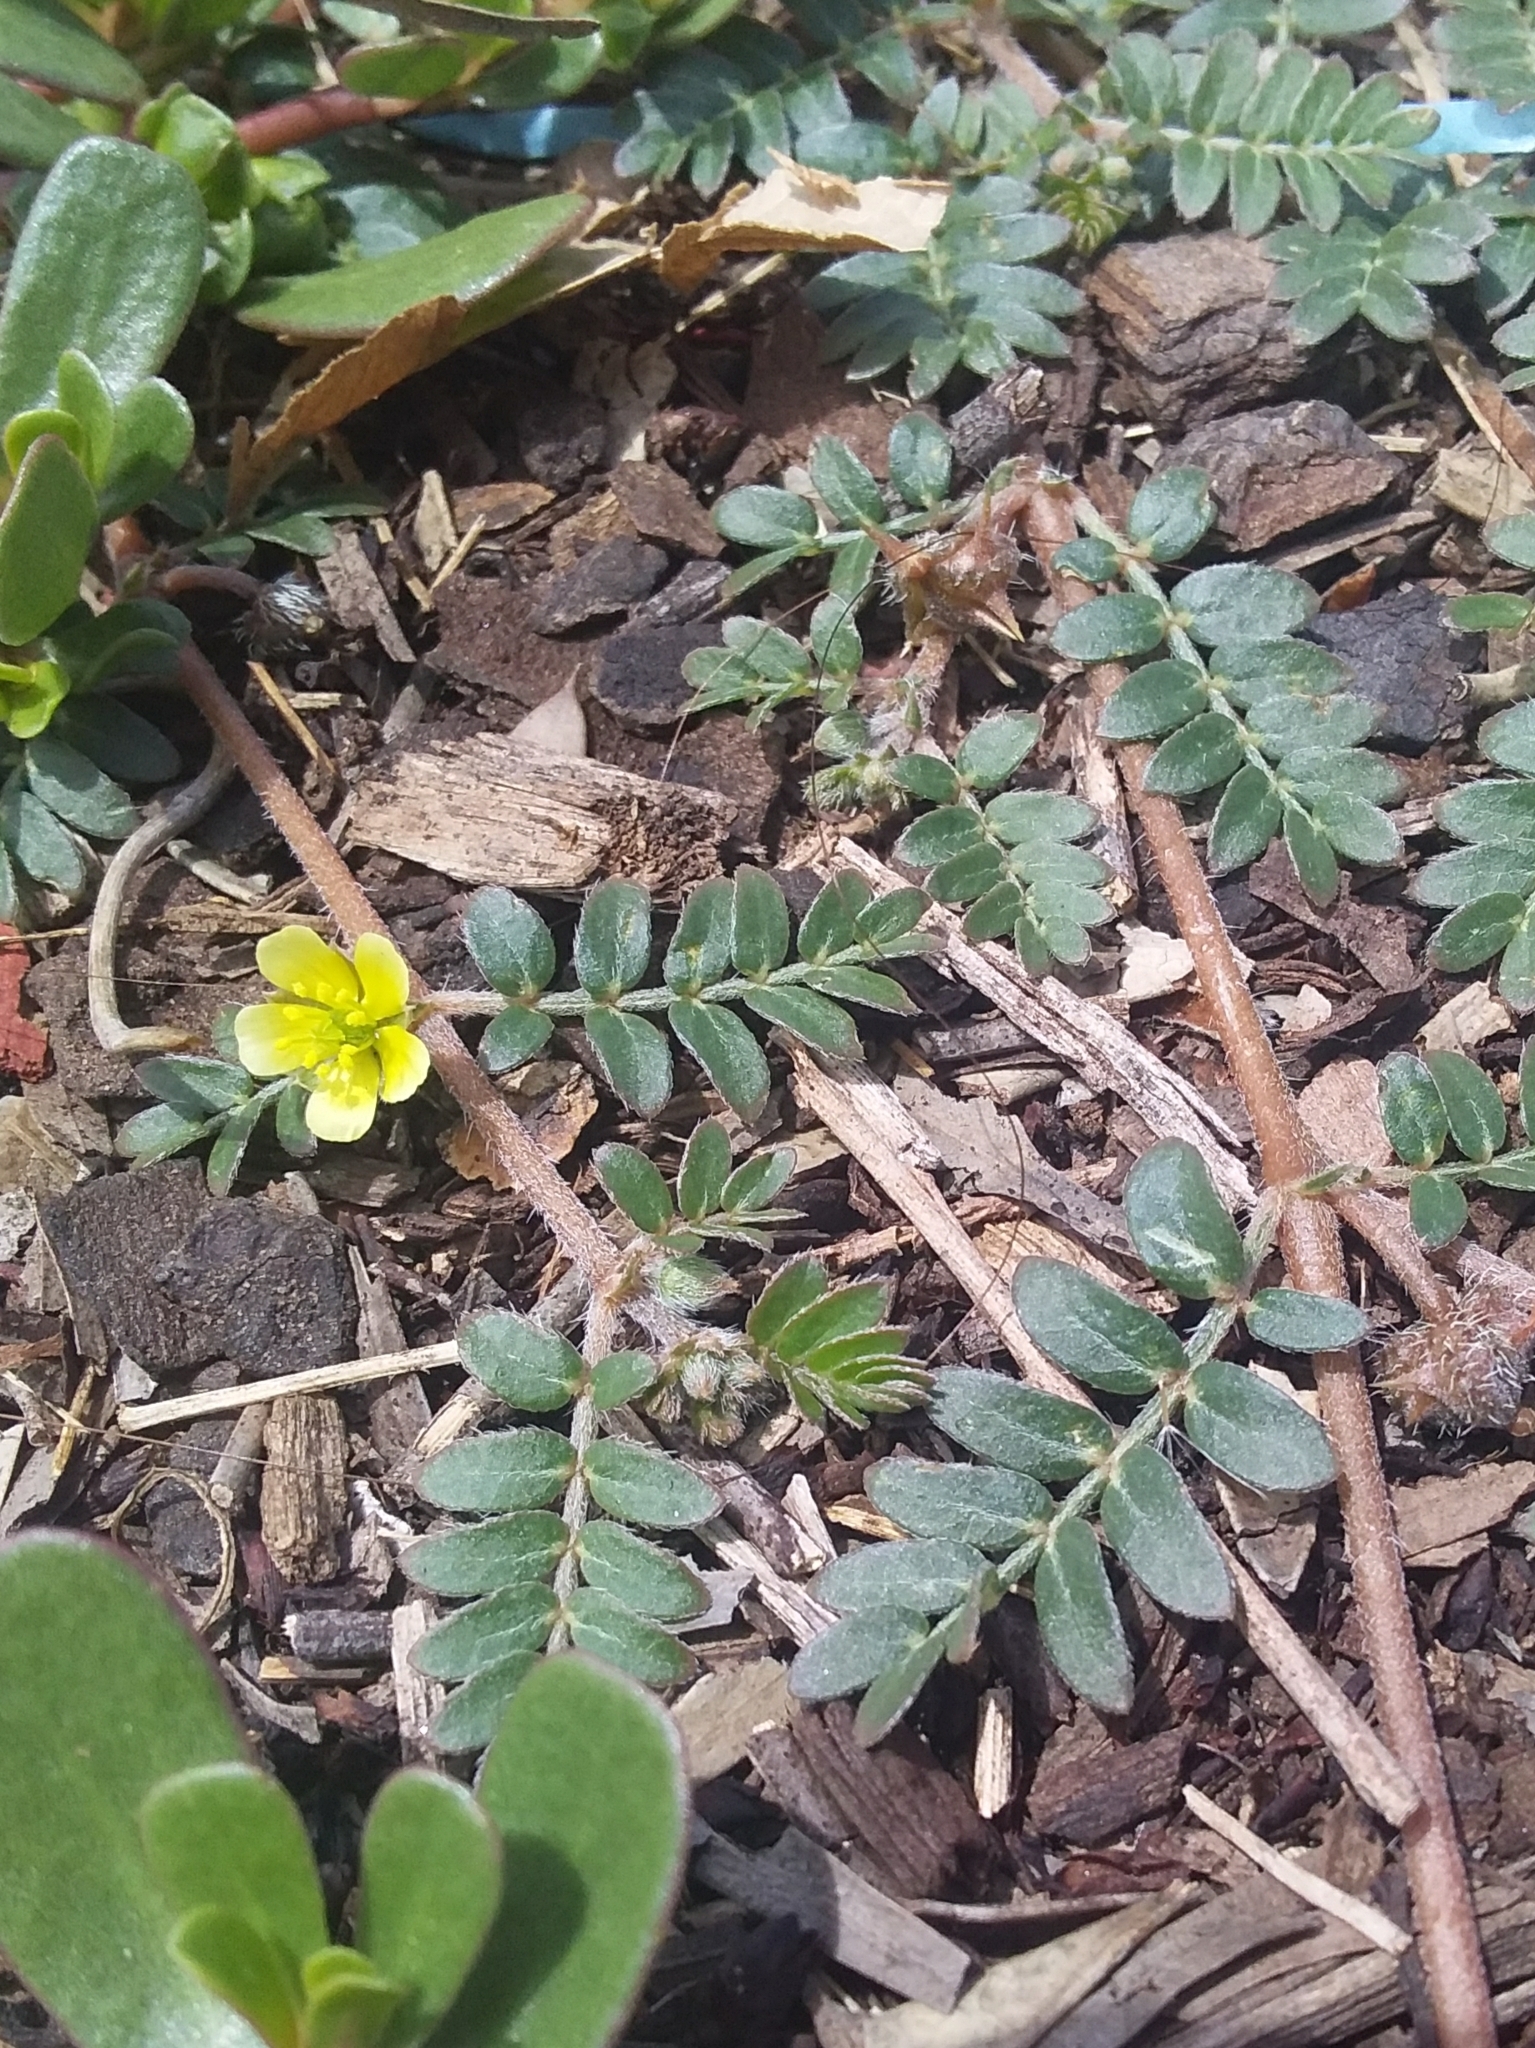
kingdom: Plantae
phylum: Tracheophyta
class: Magnoliopsida
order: Zygophyllales
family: Zygophyllaceae
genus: Tribulus
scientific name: Tribulus terrestris
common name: Puncturevine
